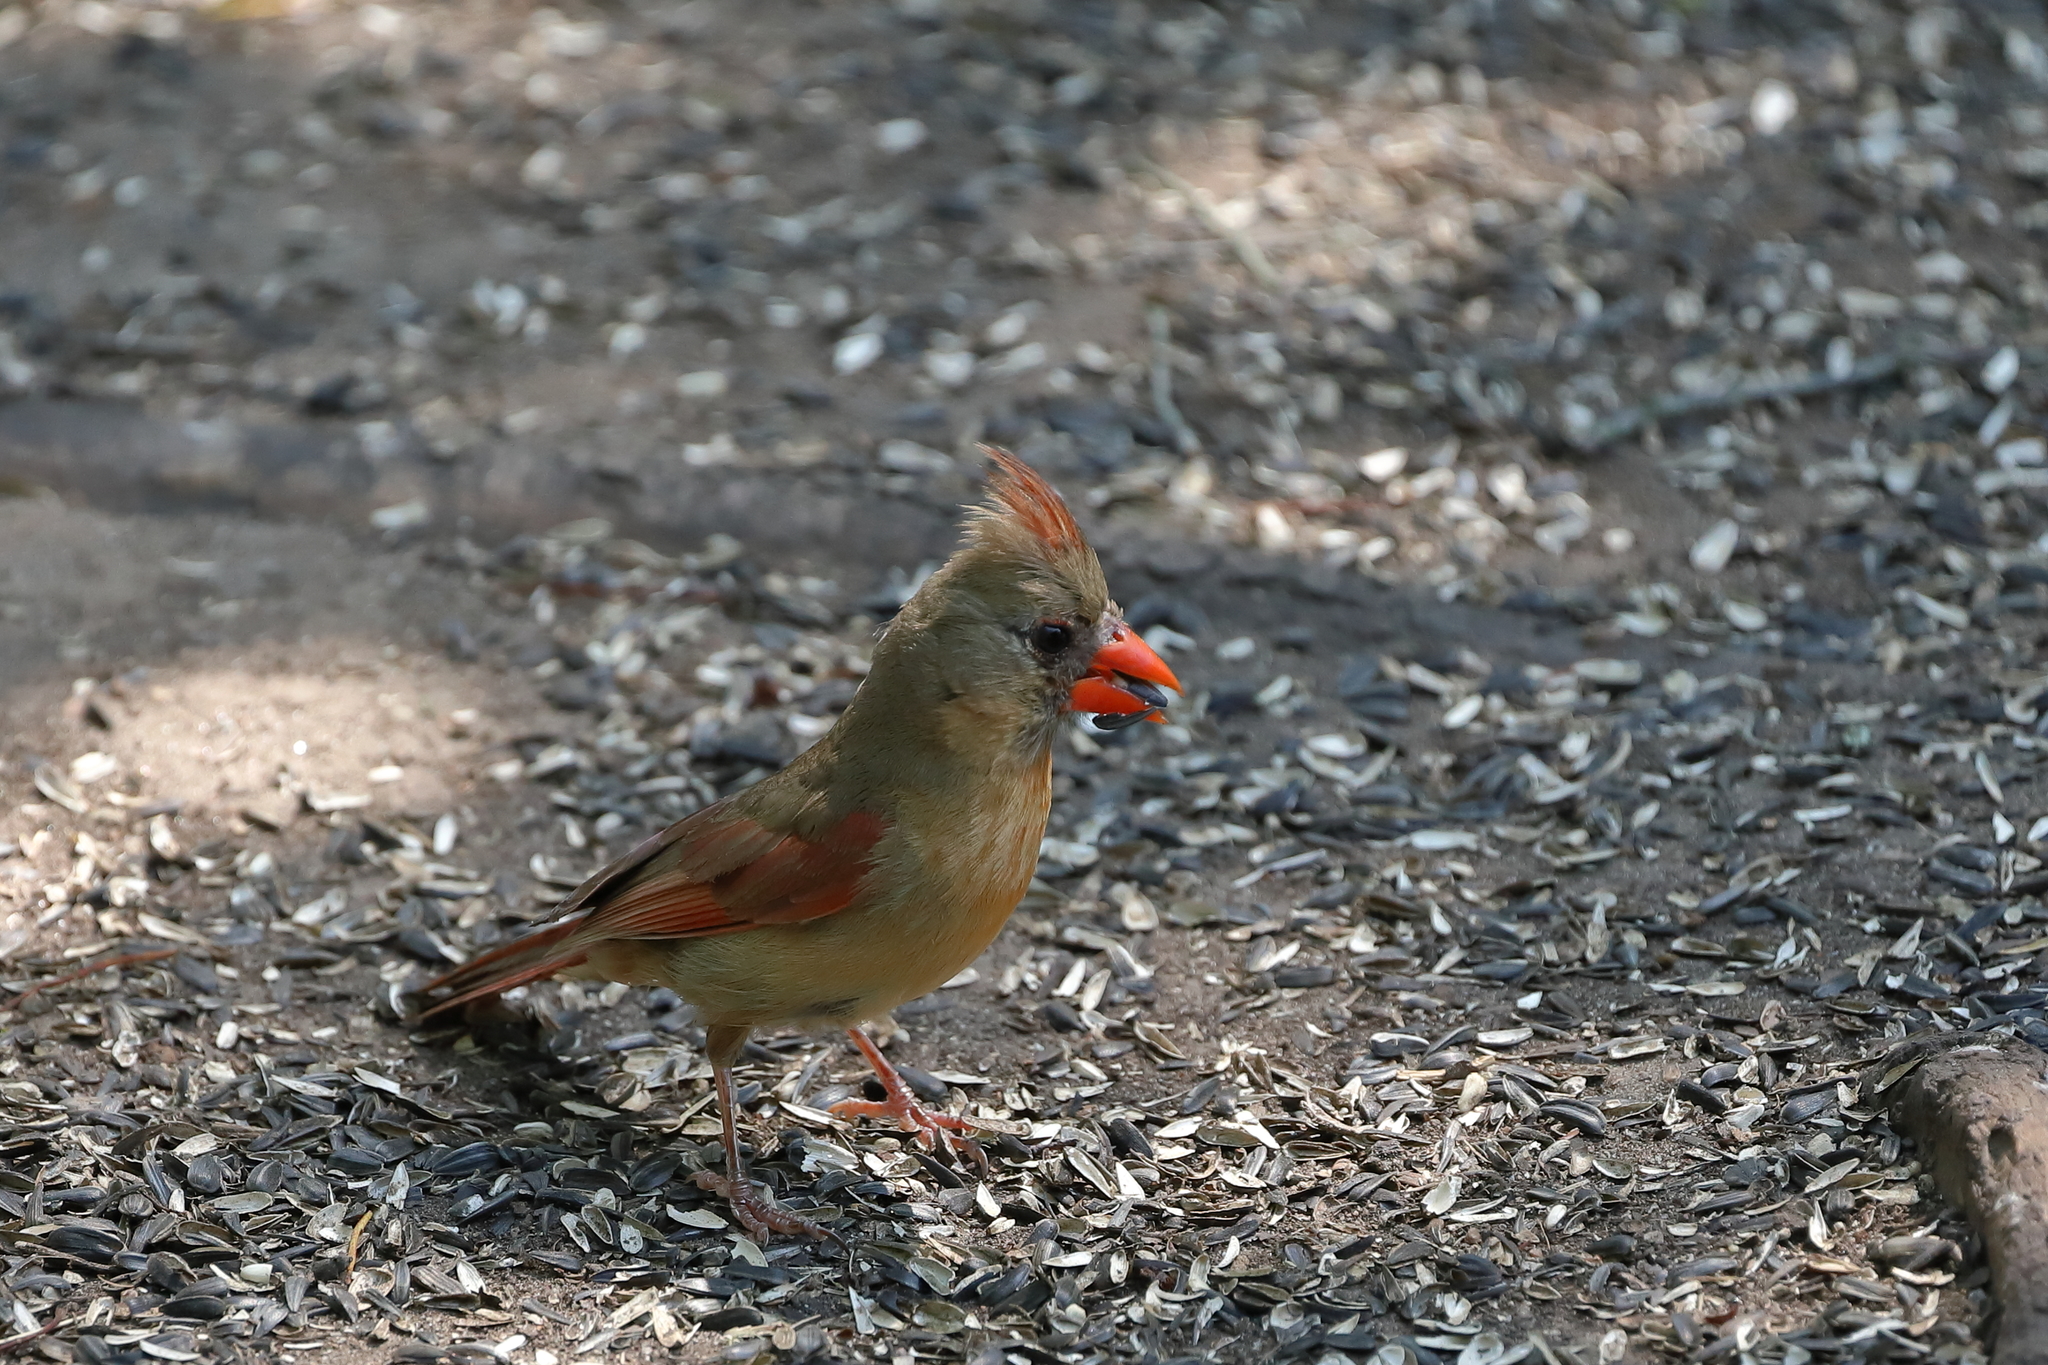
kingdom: Animalia
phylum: Chordata
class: Aves
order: Passeriformes
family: Cardinalidae
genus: Cardinalis
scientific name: Cardinalis cardinalis
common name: Northern cardinal
